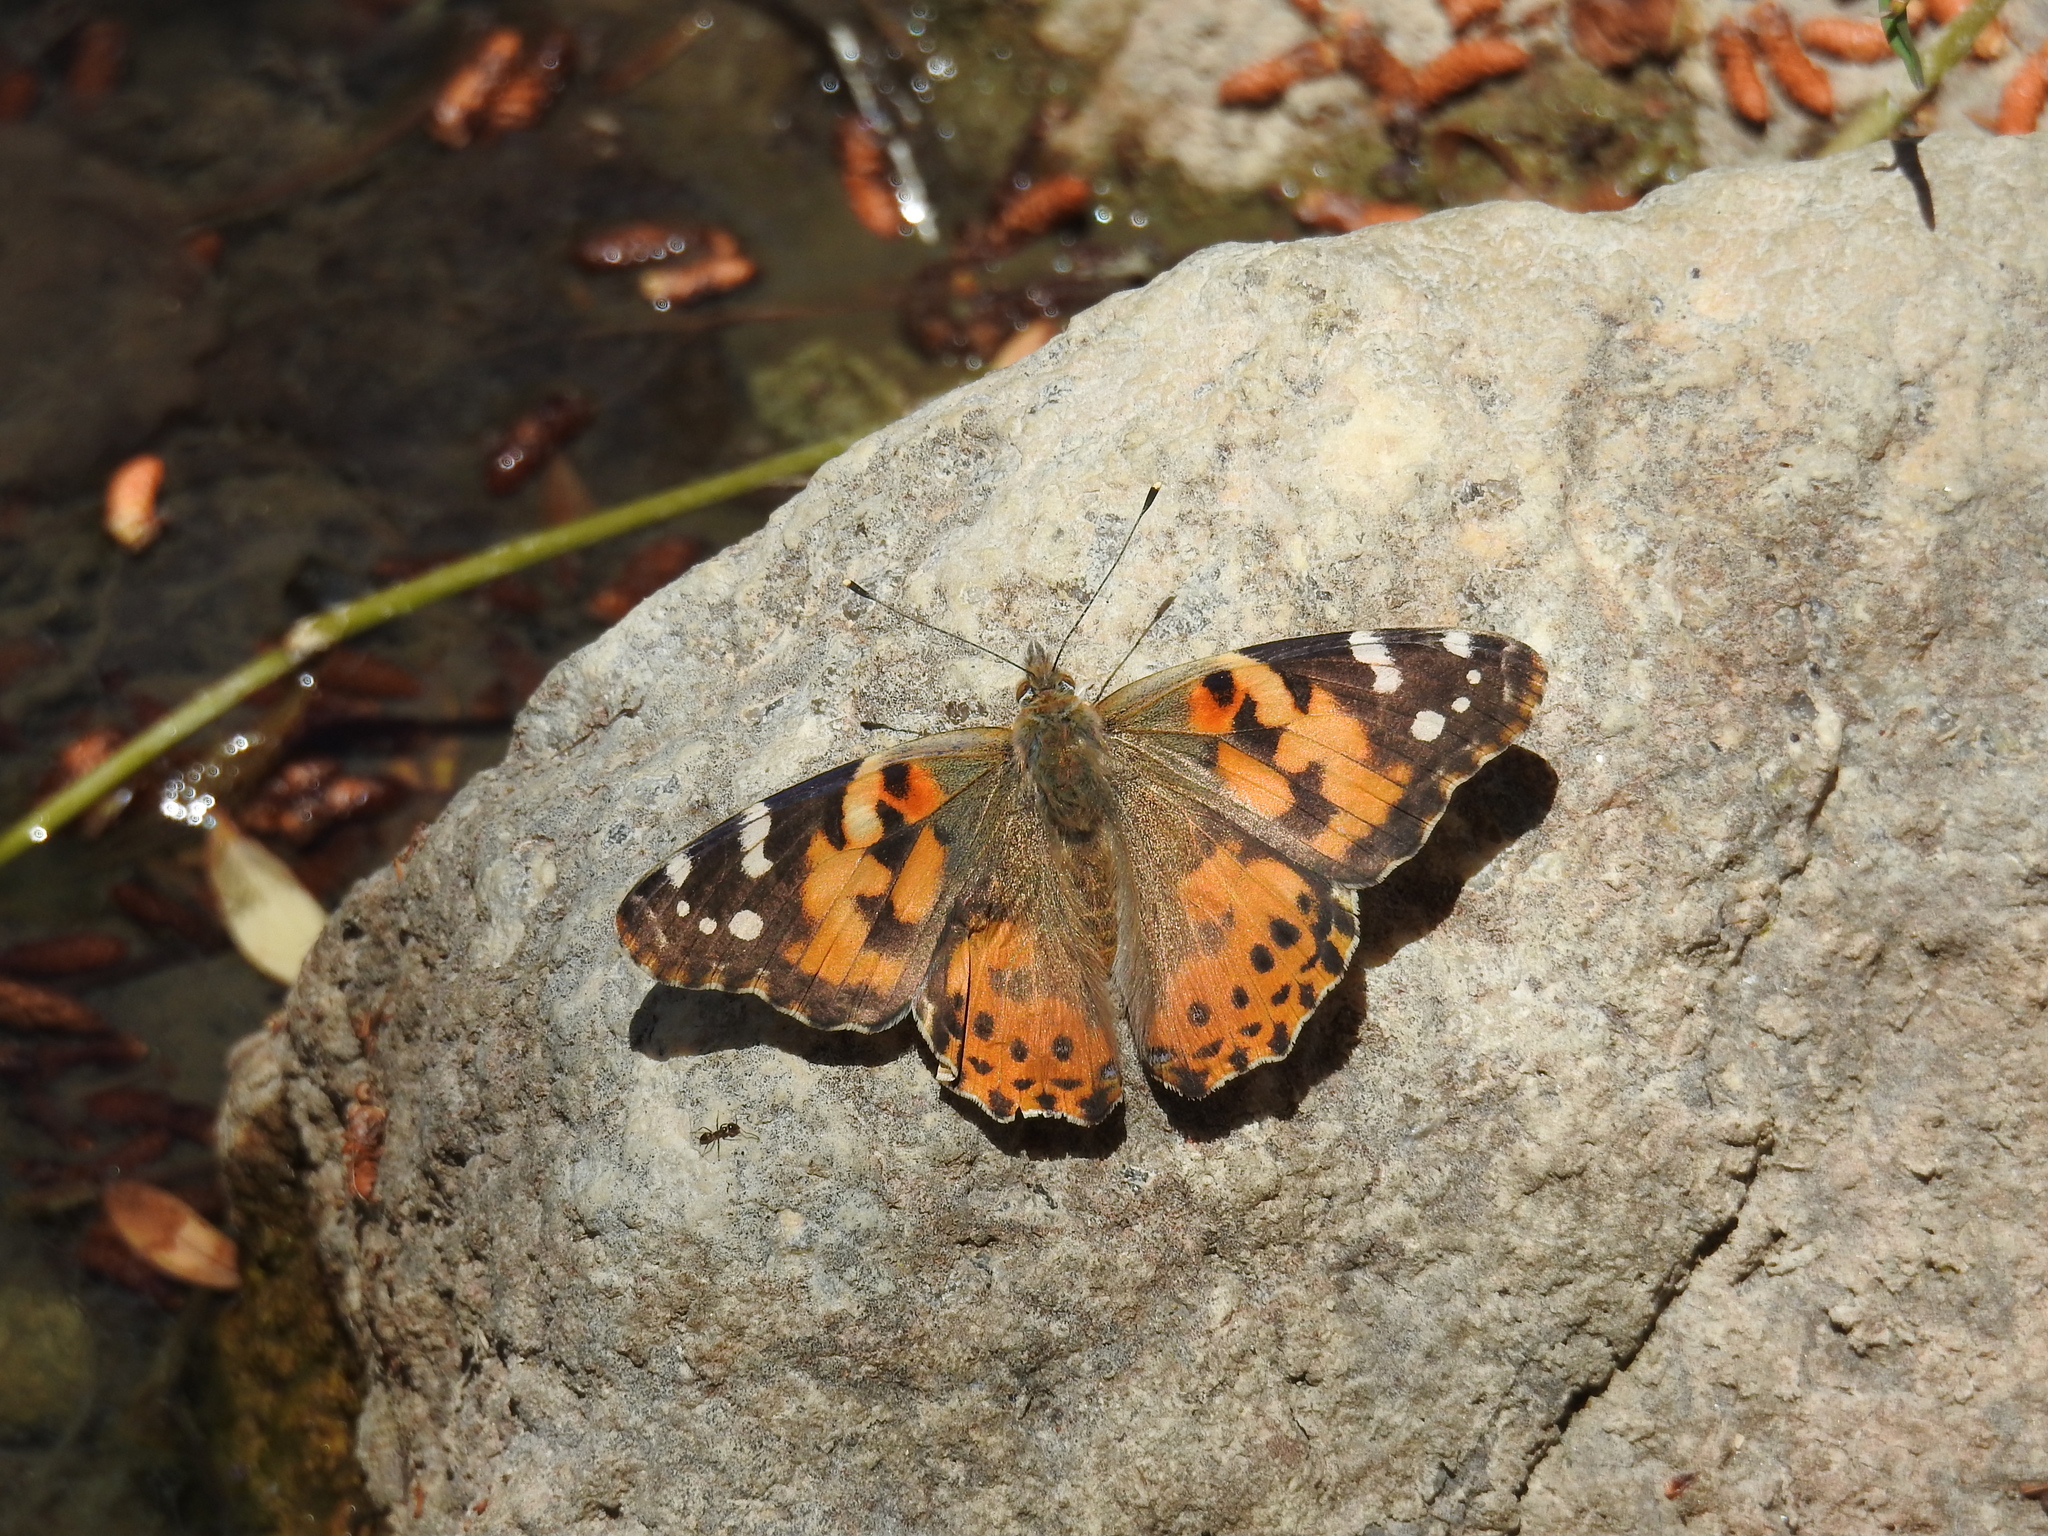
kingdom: Animalia
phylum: Arthropoda
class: Insecta
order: Lepidoptera
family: Nymphalidae
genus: Vanessa
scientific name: Vanessa cardui
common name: Painted lady
